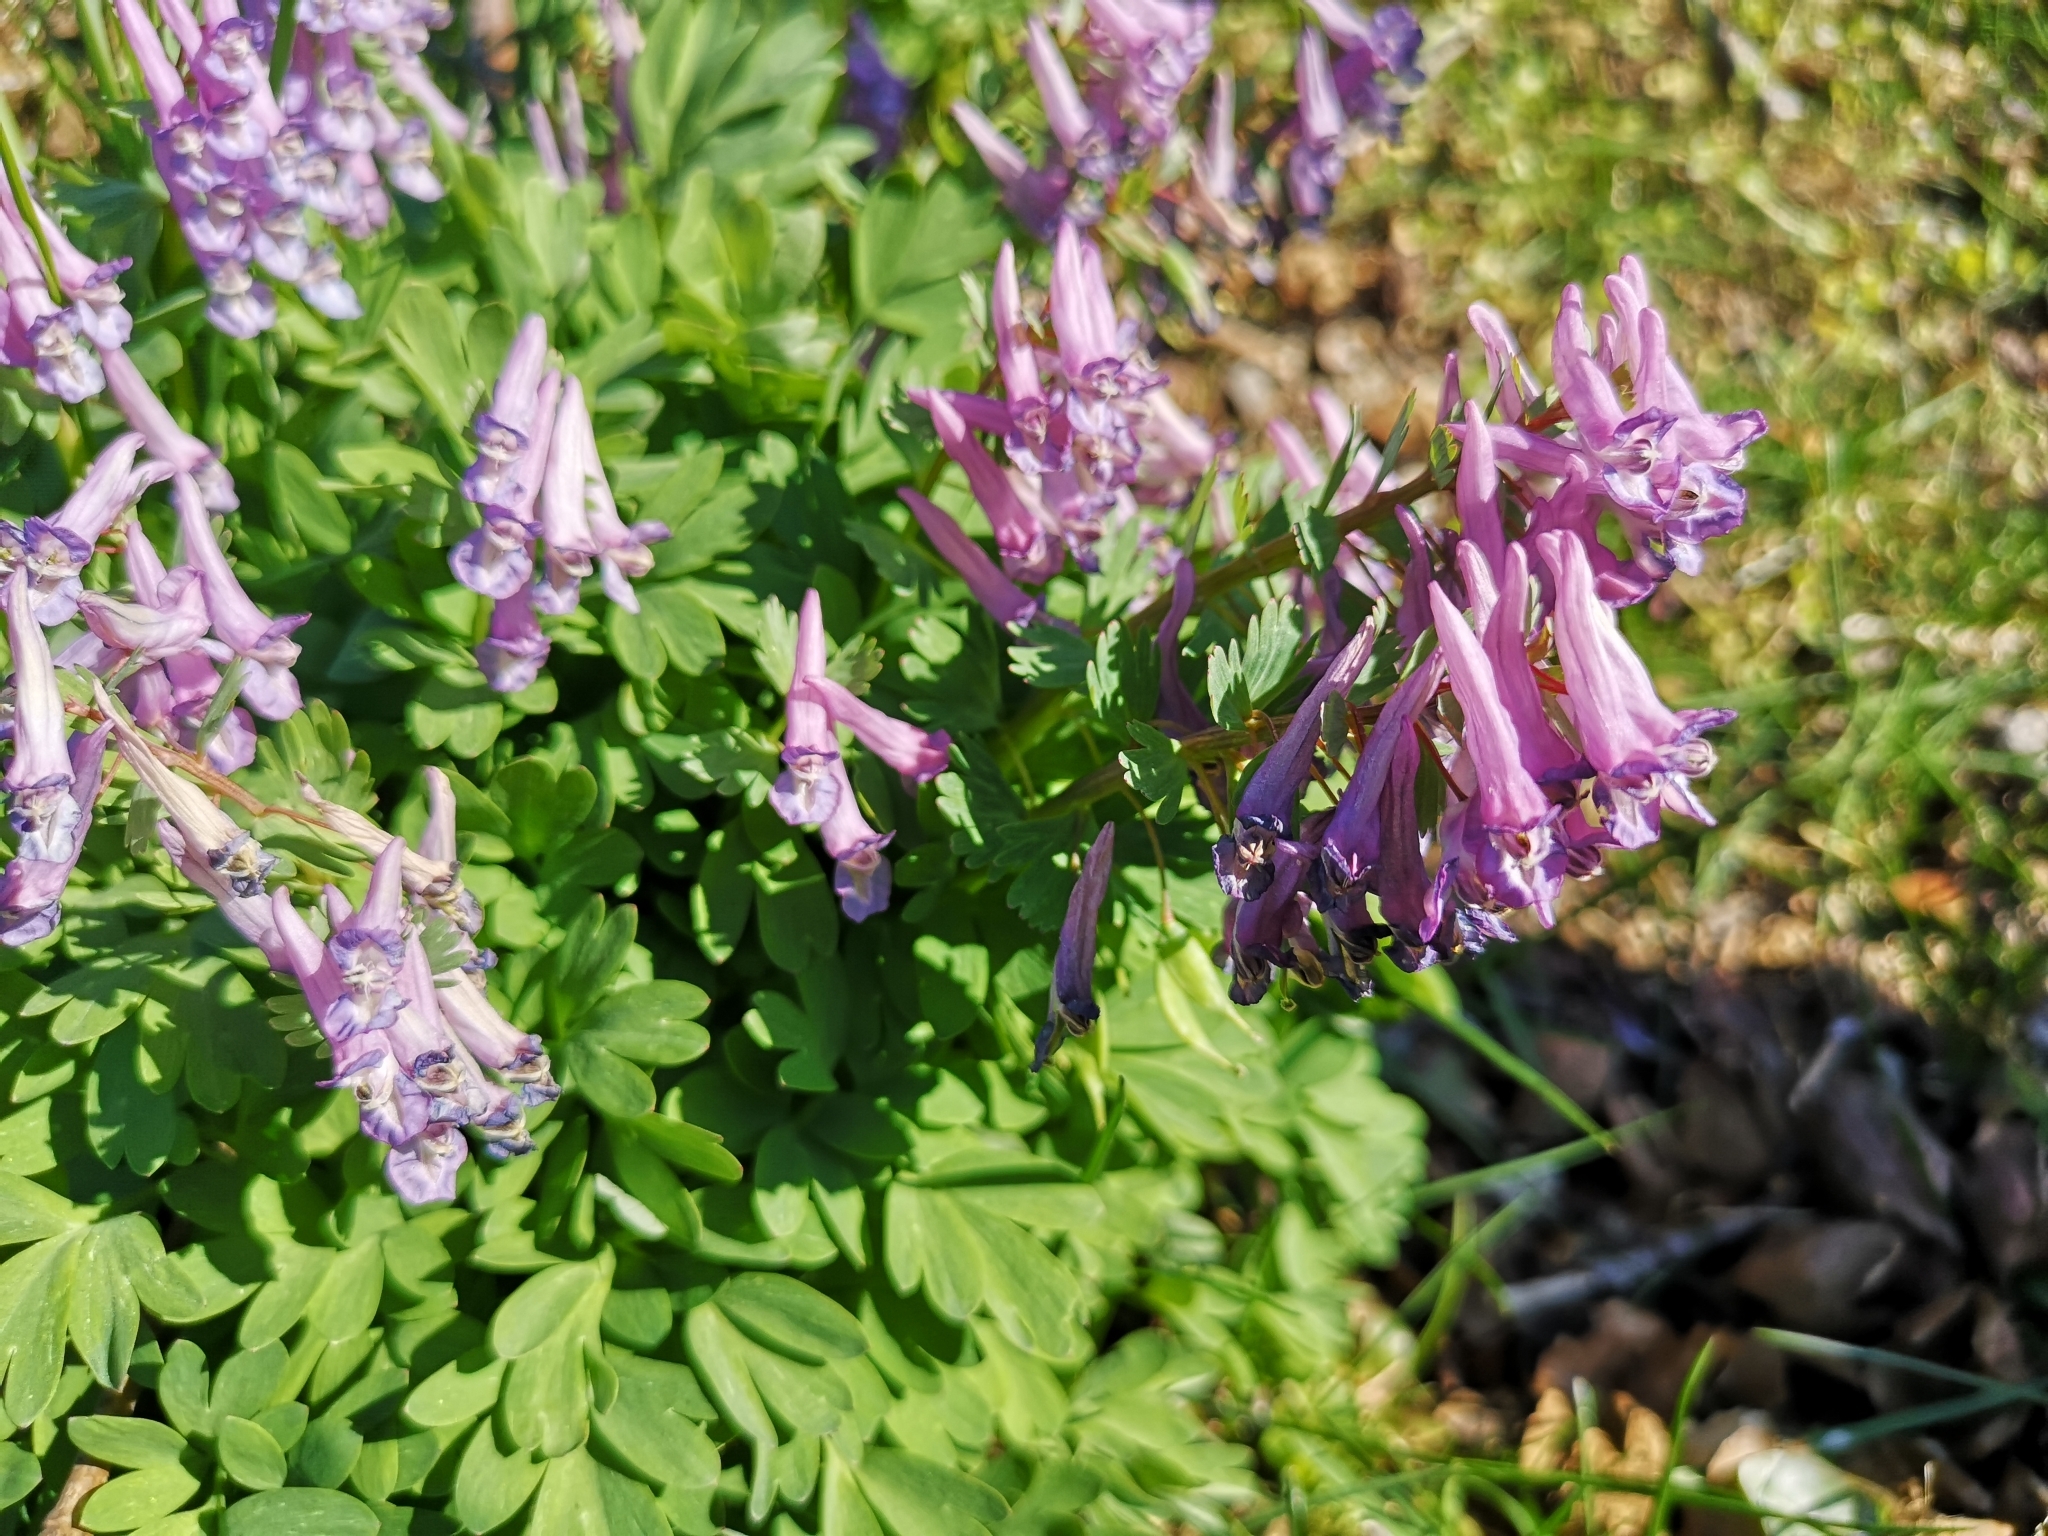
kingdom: Plantae
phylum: Tracheophyta
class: Magnoliopsida
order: Ranunculales
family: Papaveraceae
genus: Corydalis
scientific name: Corydalis solida
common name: Bird-in-a-bush
